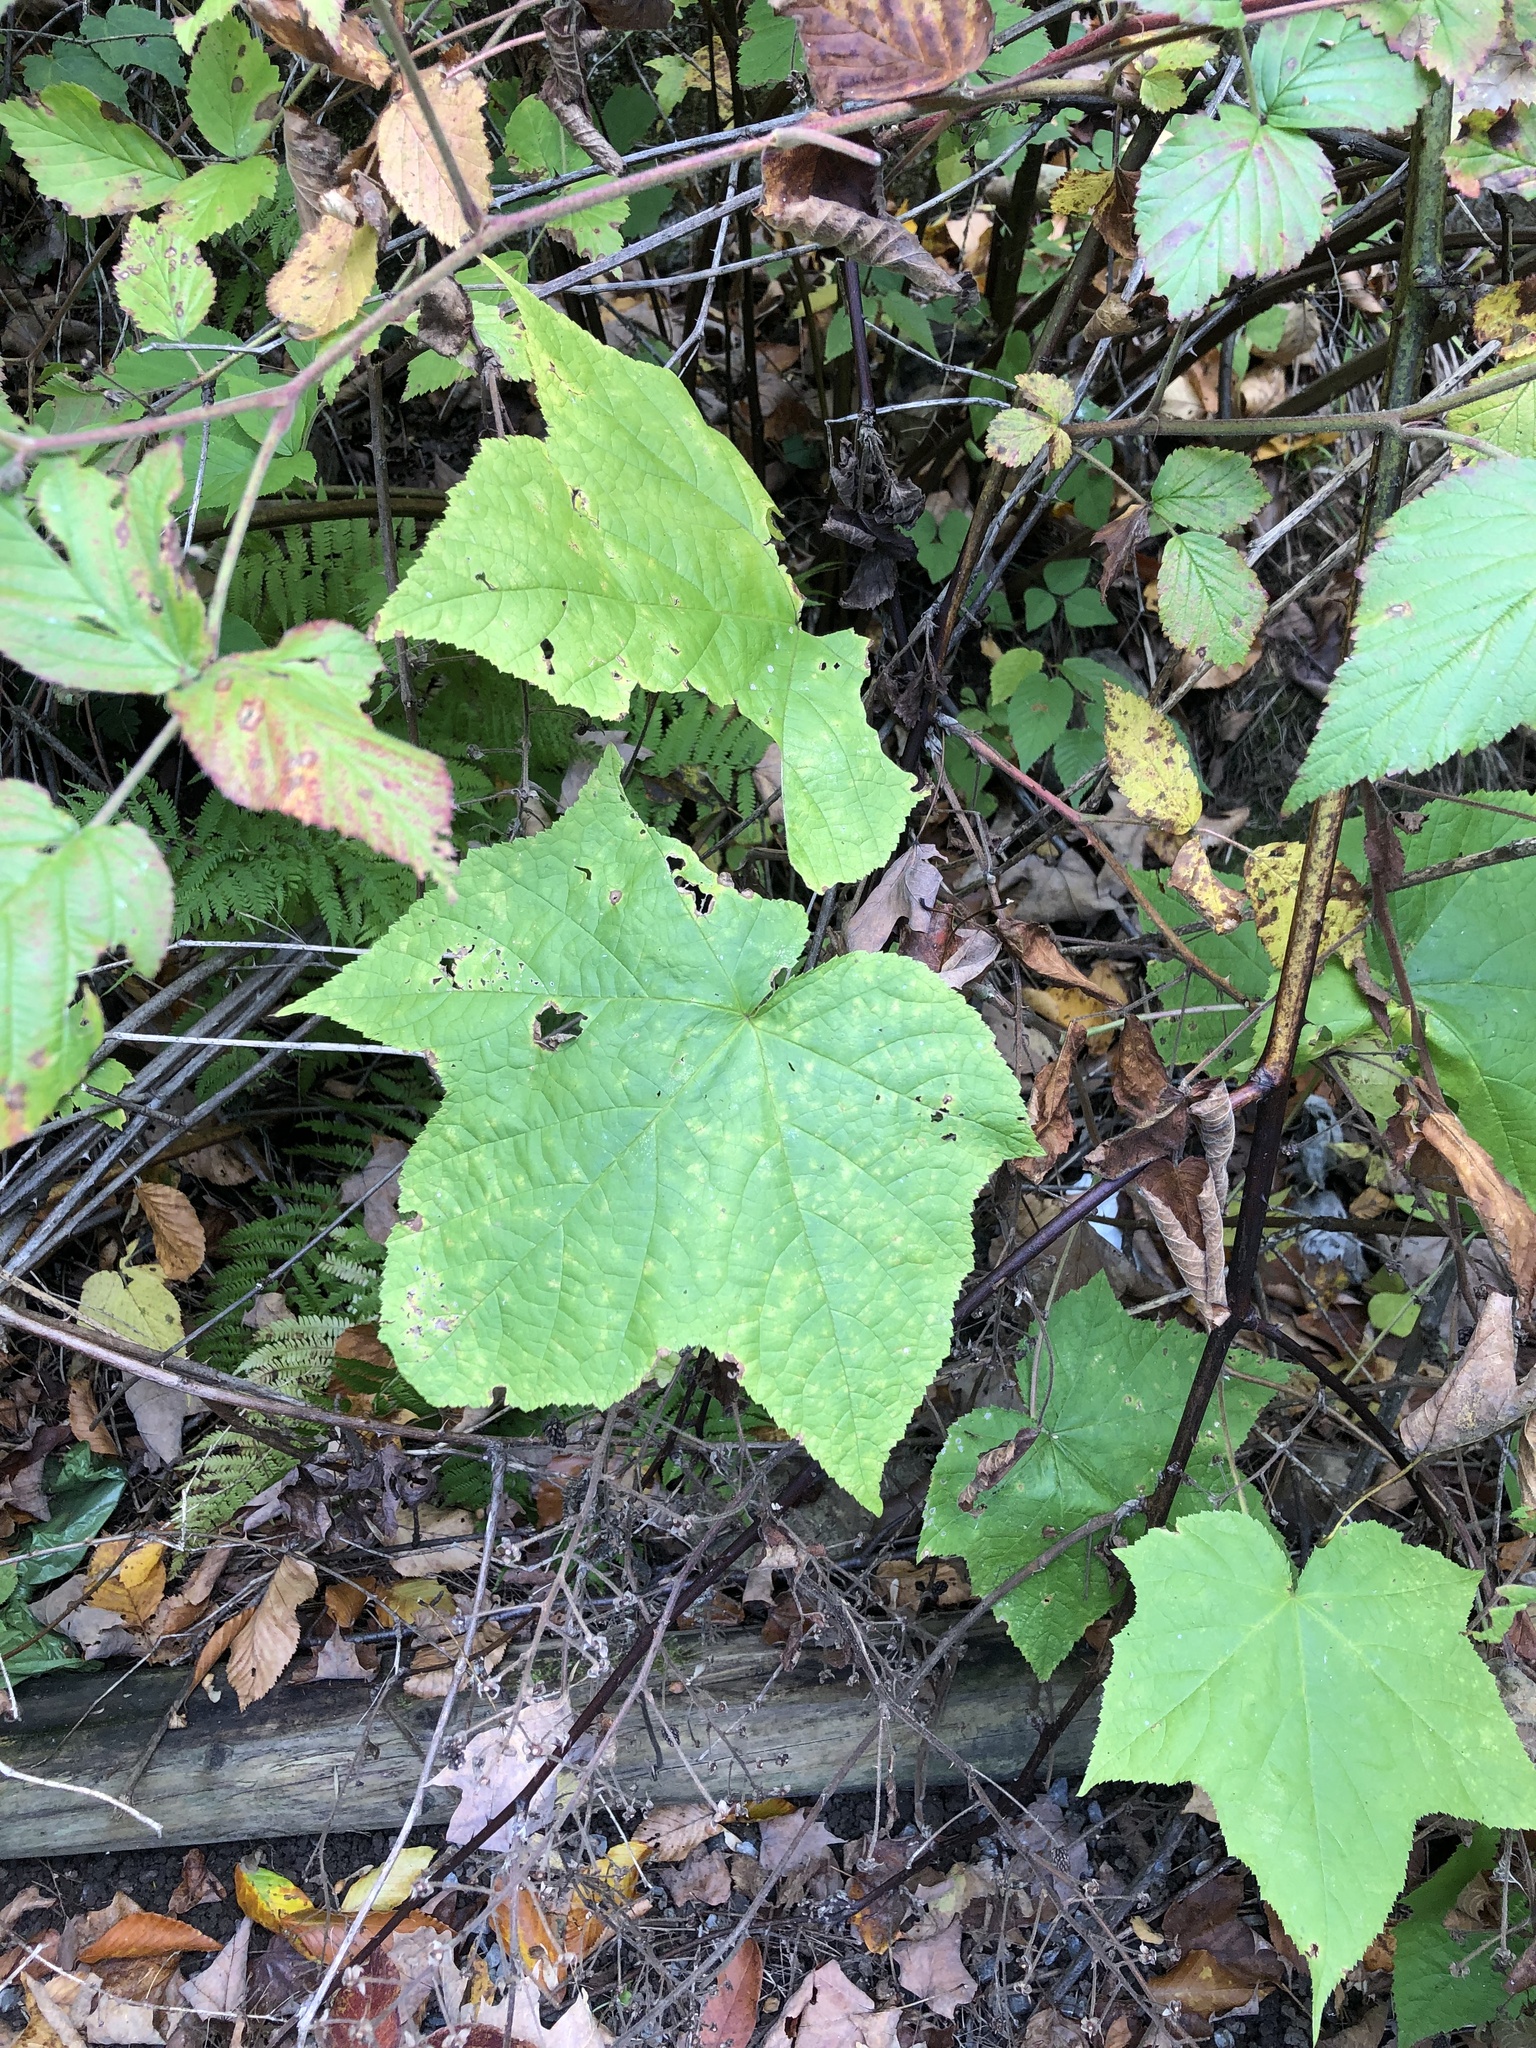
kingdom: Plantae
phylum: Tracheophyta
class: Magnoliopsida
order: Rosales
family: Rosaceae
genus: Rubus
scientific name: Rubus odoratus
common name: Purple-flowered raspberry
